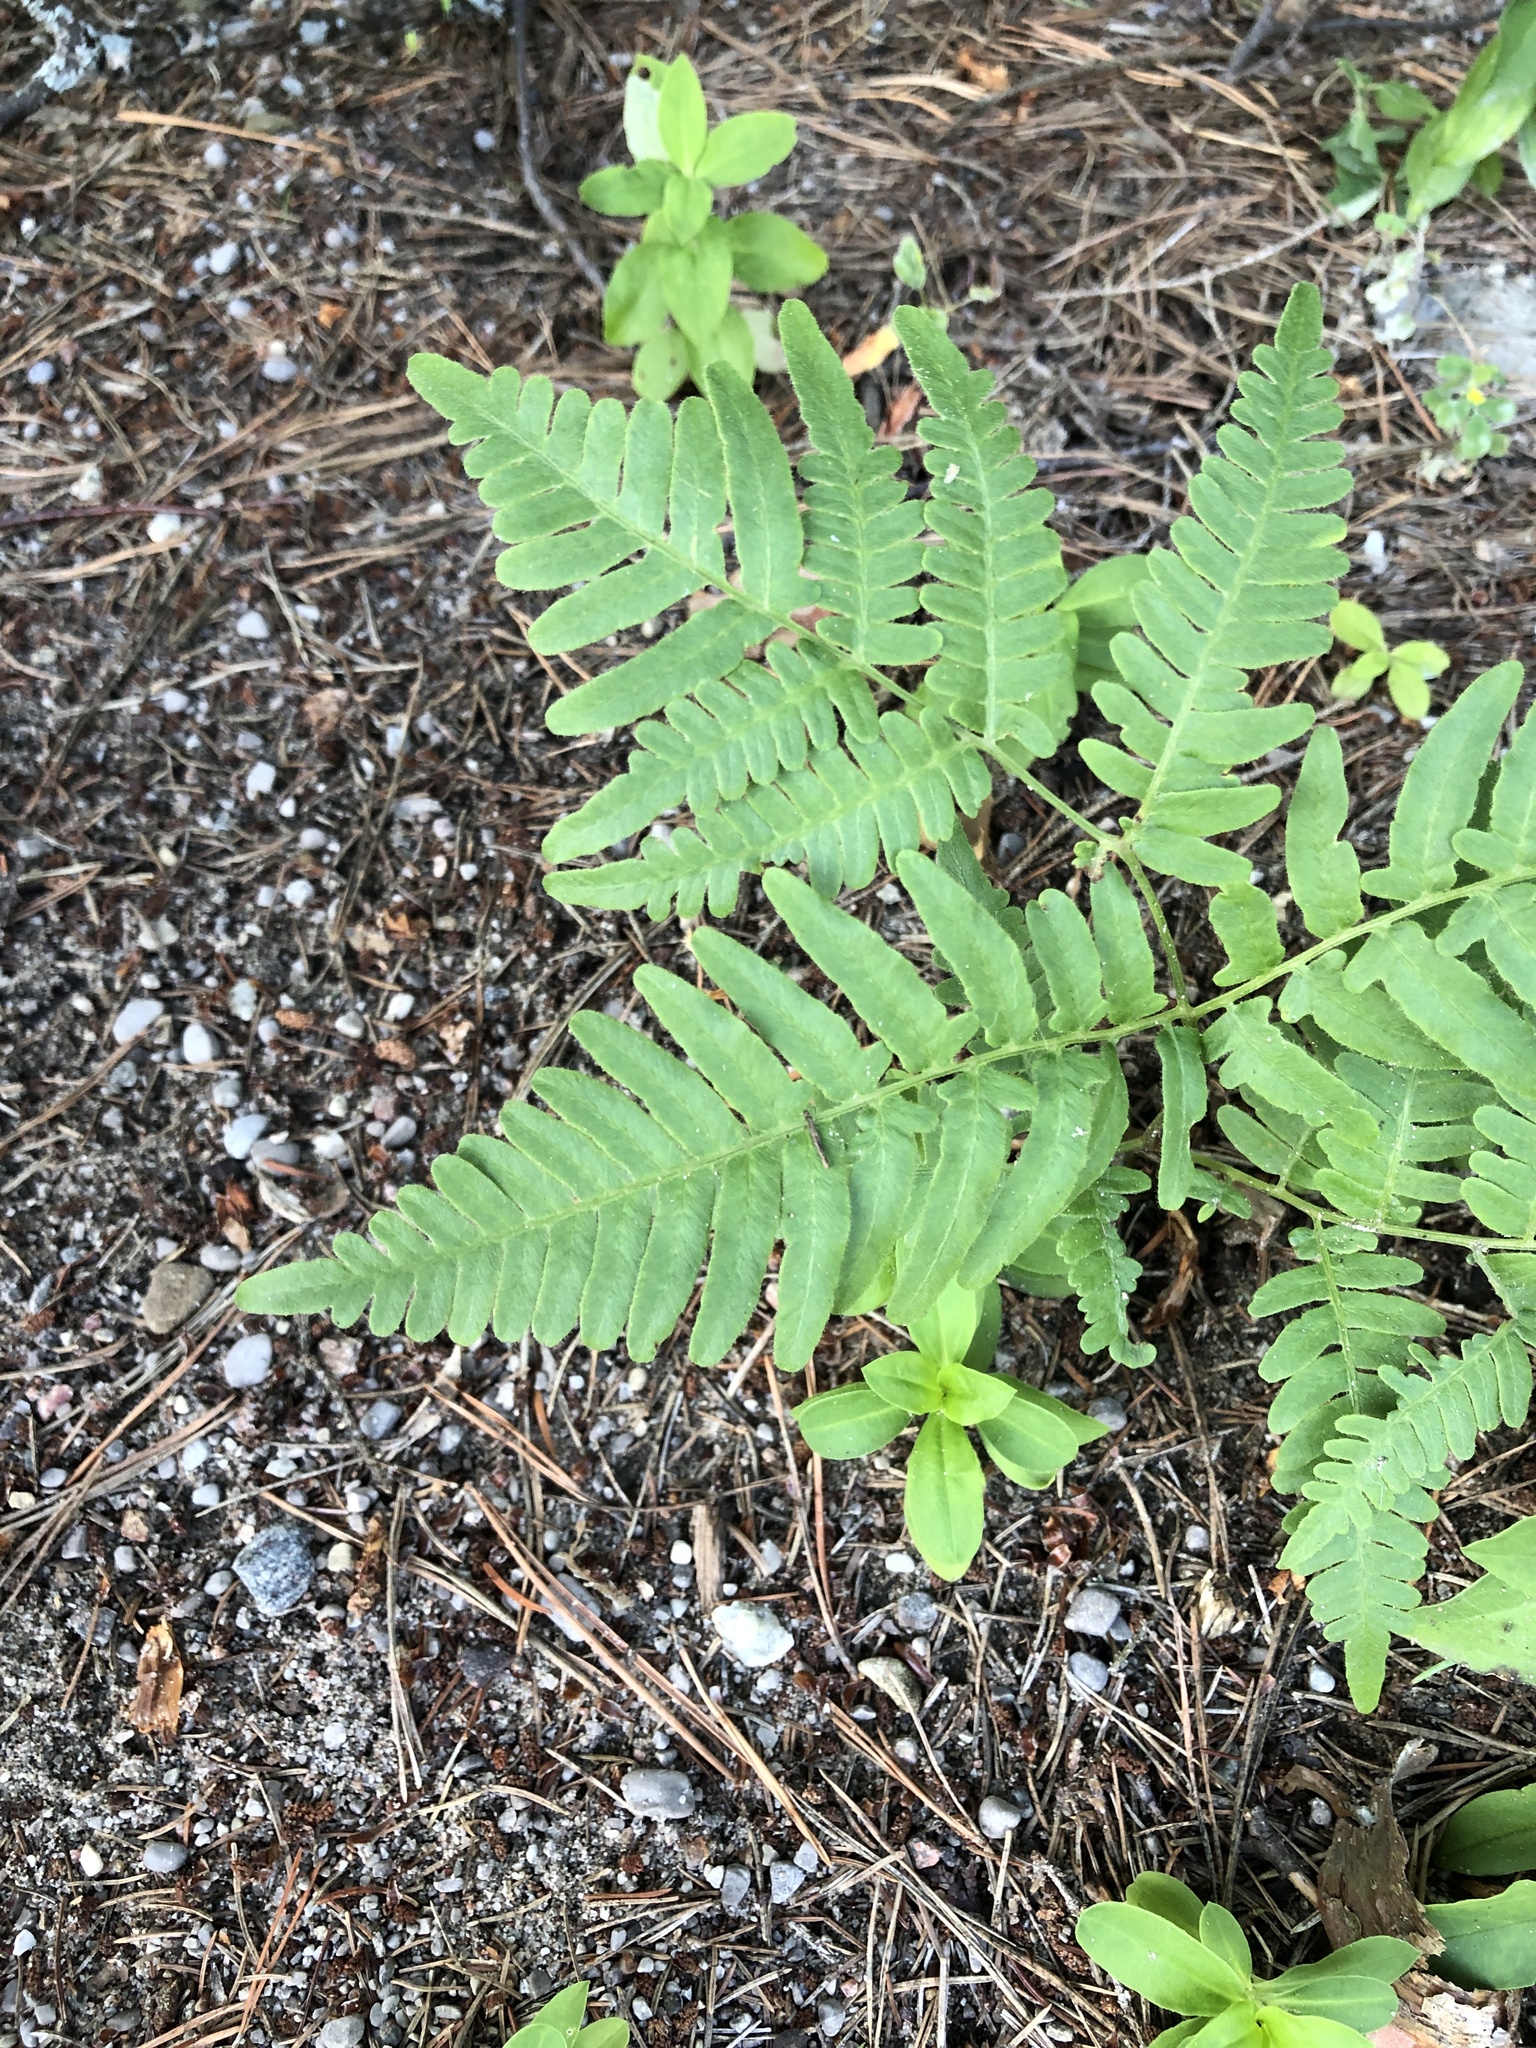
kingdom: Plantae
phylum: Tracheophyta
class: Polypodiopsida
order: Polypodiales
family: Dennstaedtiaceae
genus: Pteridium
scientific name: Pteridium aquilinum
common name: Bracken
